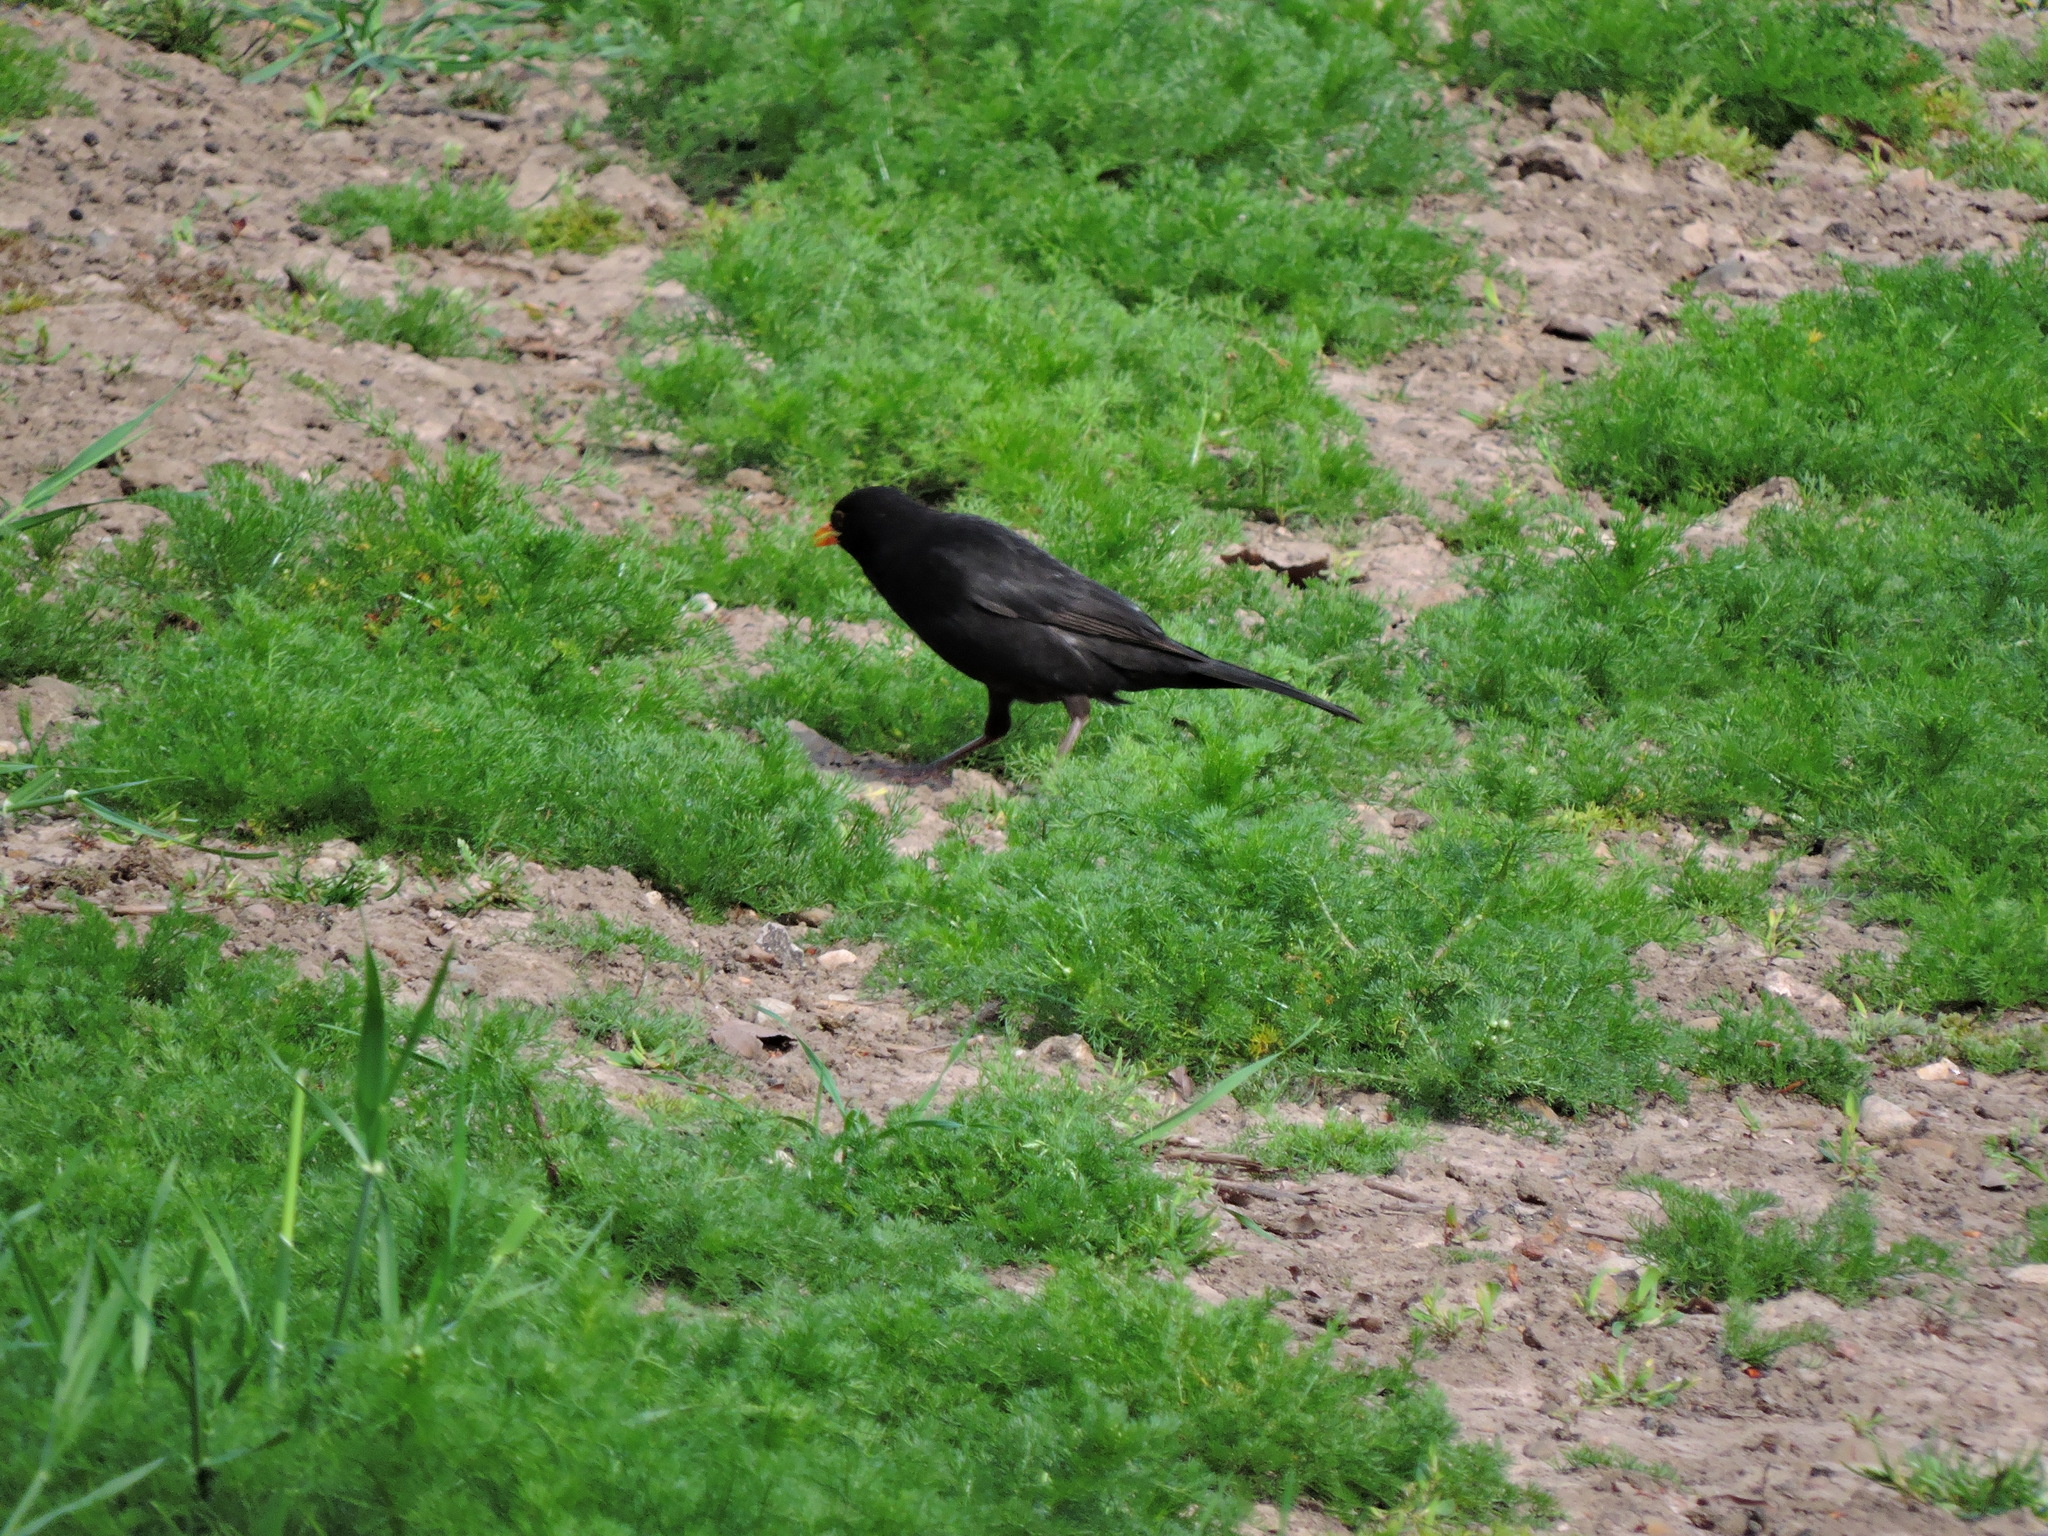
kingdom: Animalia
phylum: Chordata
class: Aves
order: Passeriformes
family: Turdidae
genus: Turdus
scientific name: Turdus merula
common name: Common blackbird
